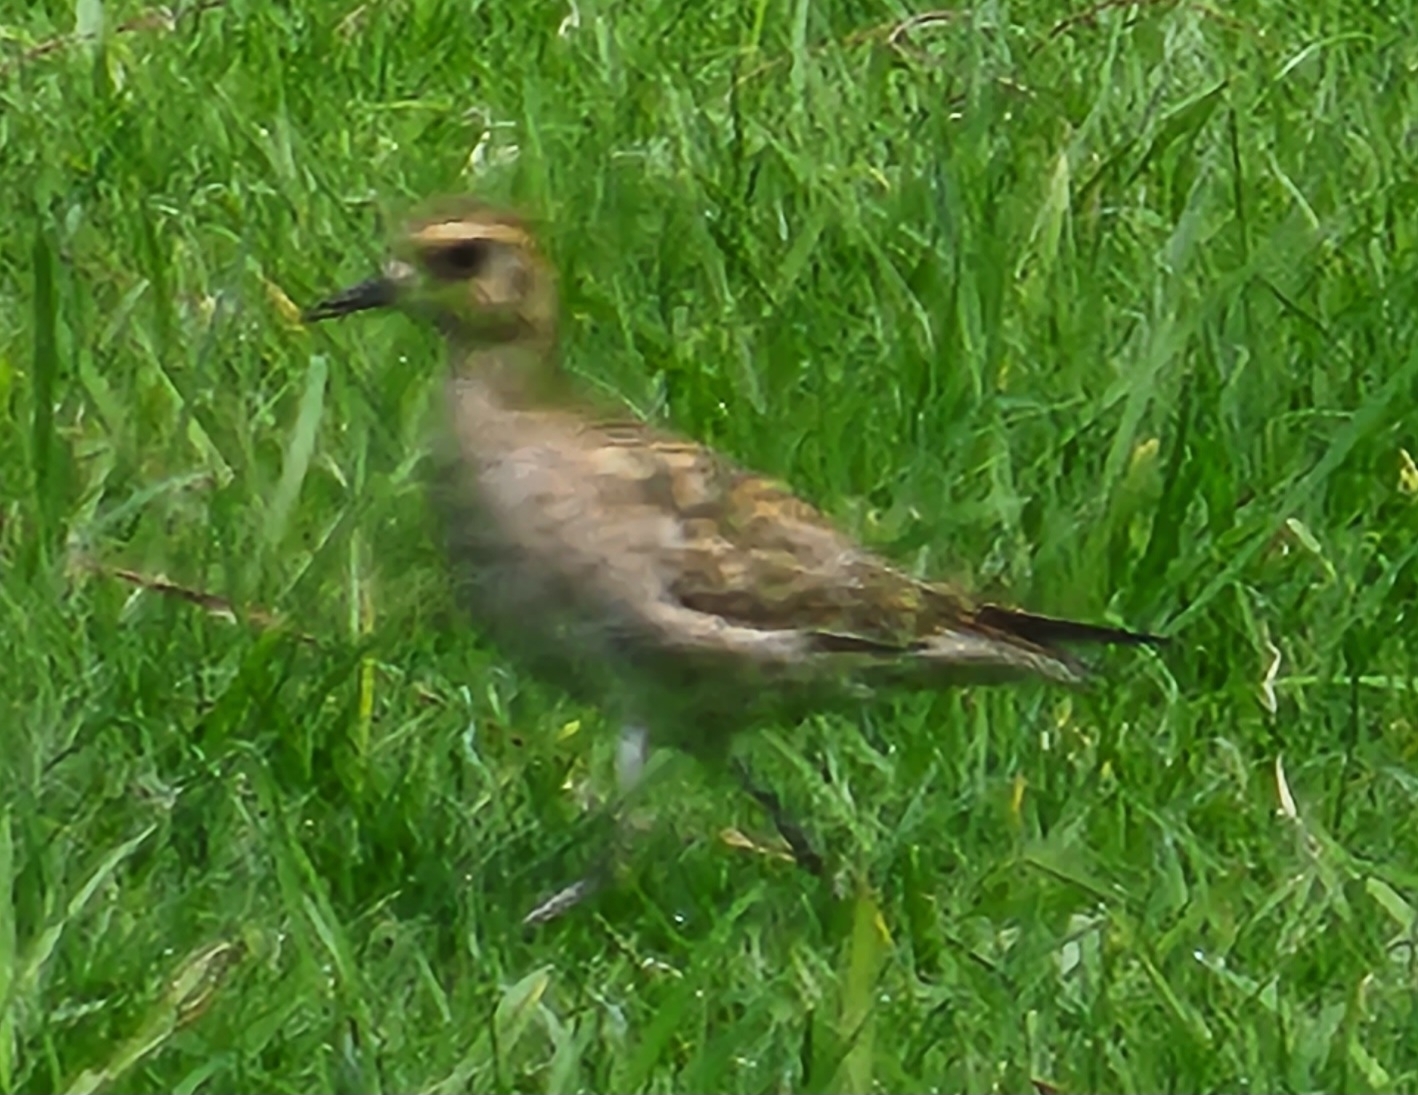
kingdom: Animalia
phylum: Chordata
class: Aves
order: Charadriiformes
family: Charadriidae
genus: Pluvialis
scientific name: Pluvialis fulva
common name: Pacific golden plover
